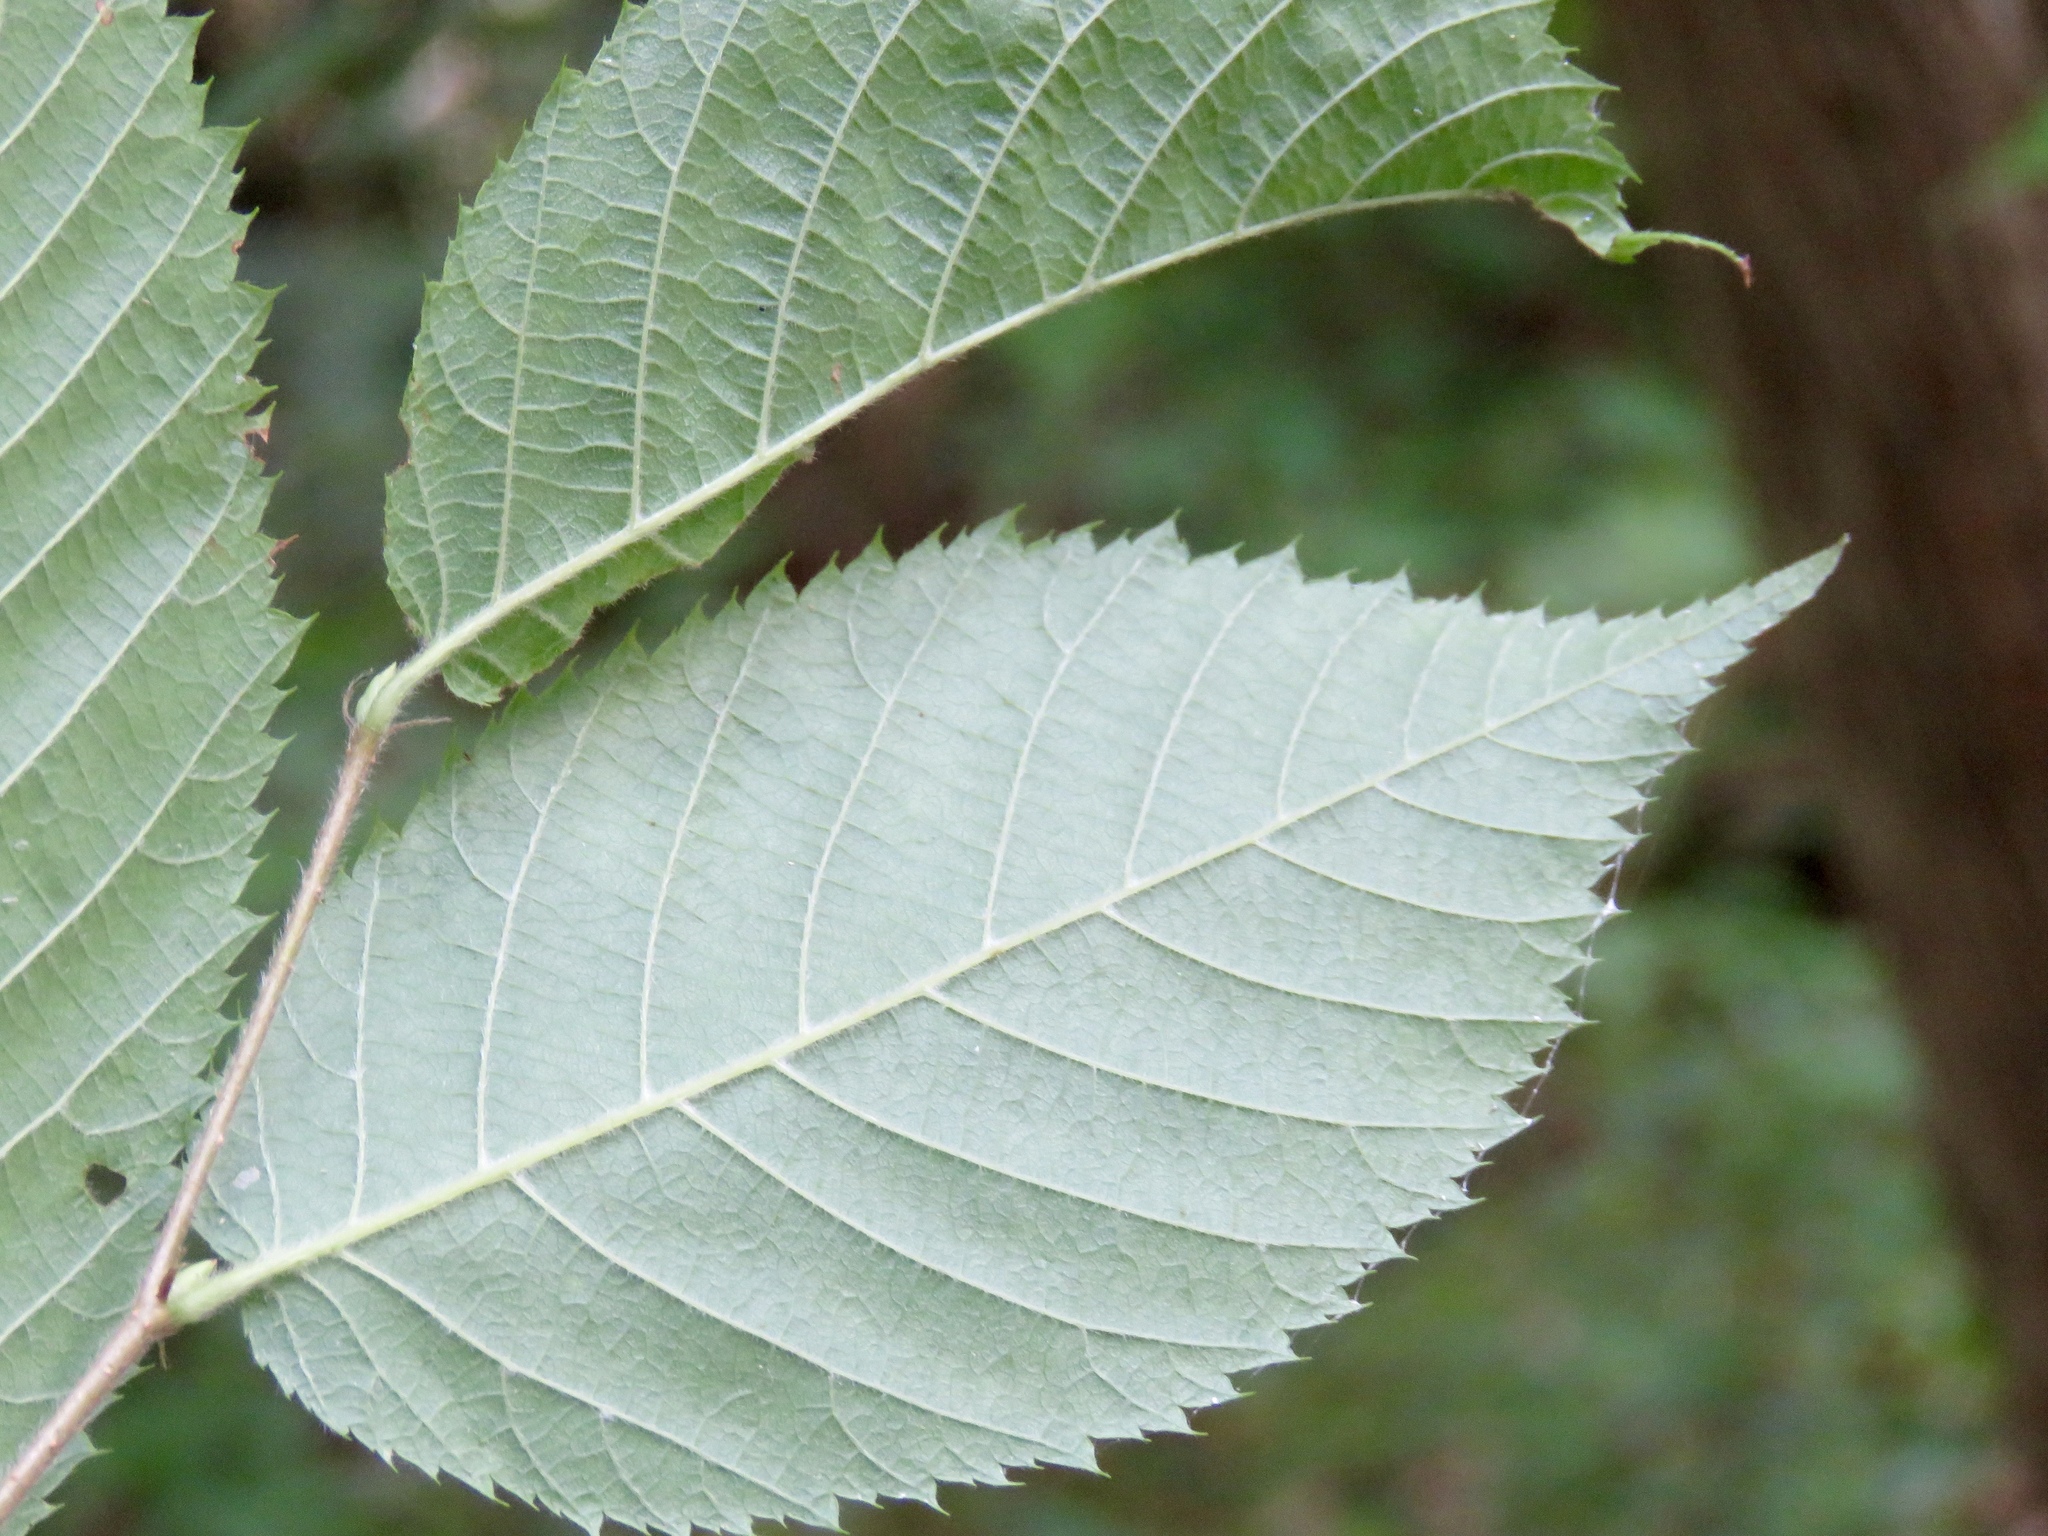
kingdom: Plantae
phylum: Tracheophyta
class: Magnoliopsida
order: Fagales
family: Betulaceae
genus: Ostrya
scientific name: Ostrya virginiana
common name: Ironwood
